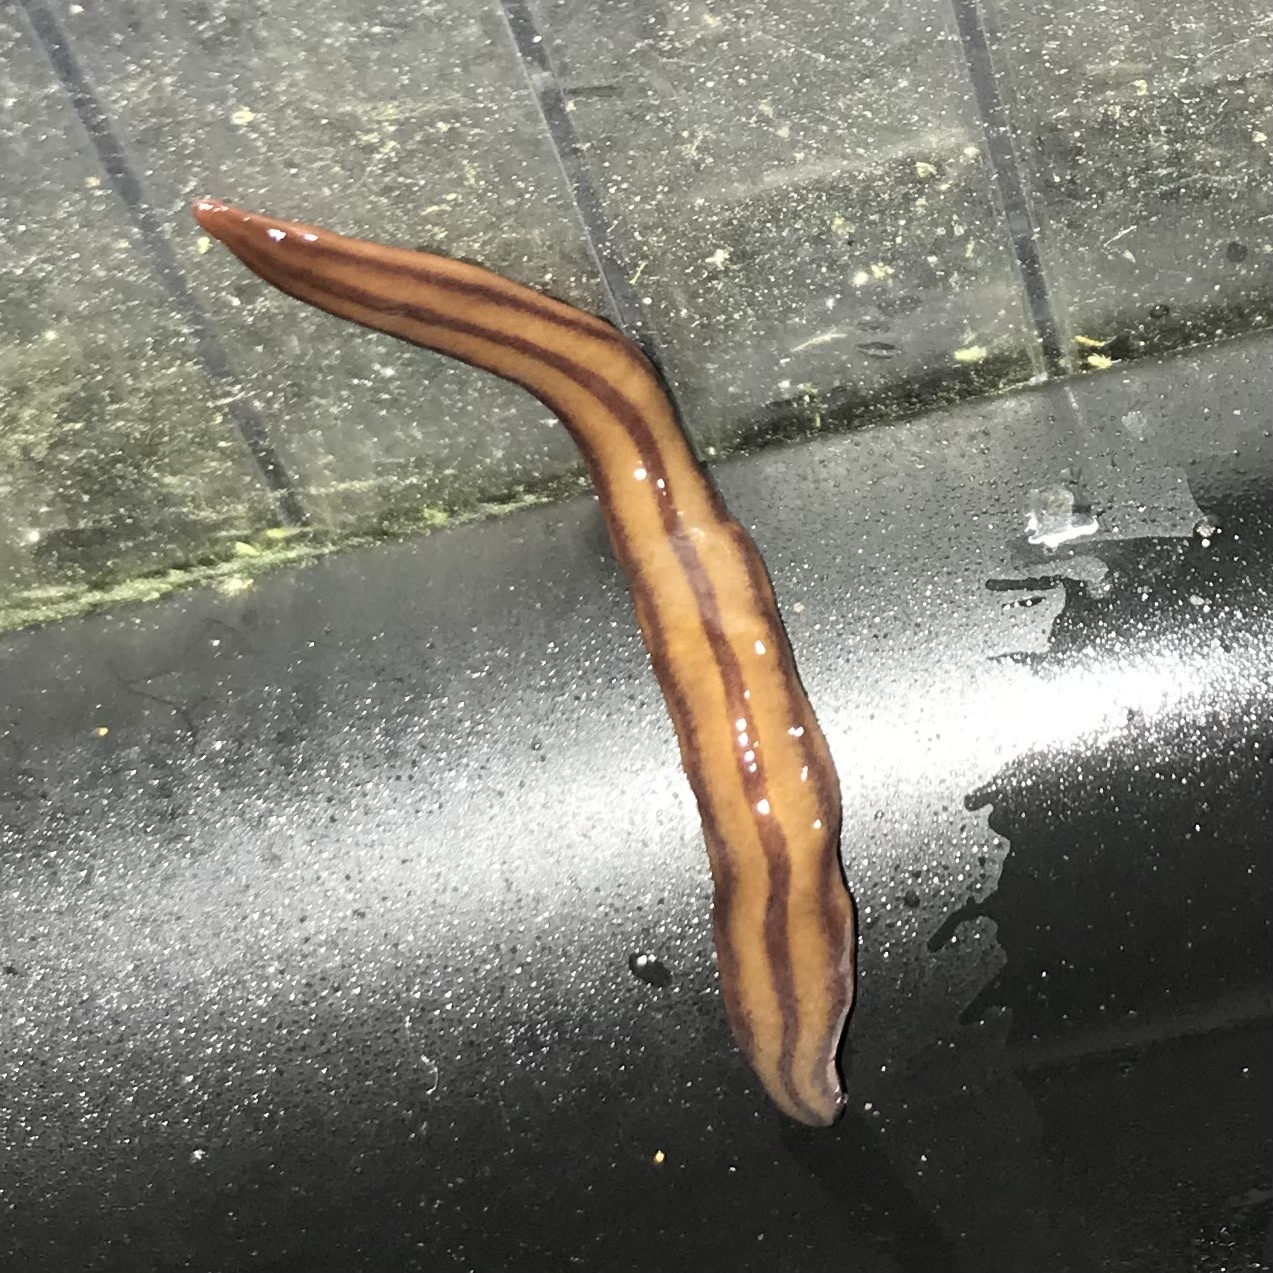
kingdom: Animalia
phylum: Platyhelminthes
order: Tricladida
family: Geoplanidae
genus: Anzoplana
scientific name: Anzoplana trilineata
